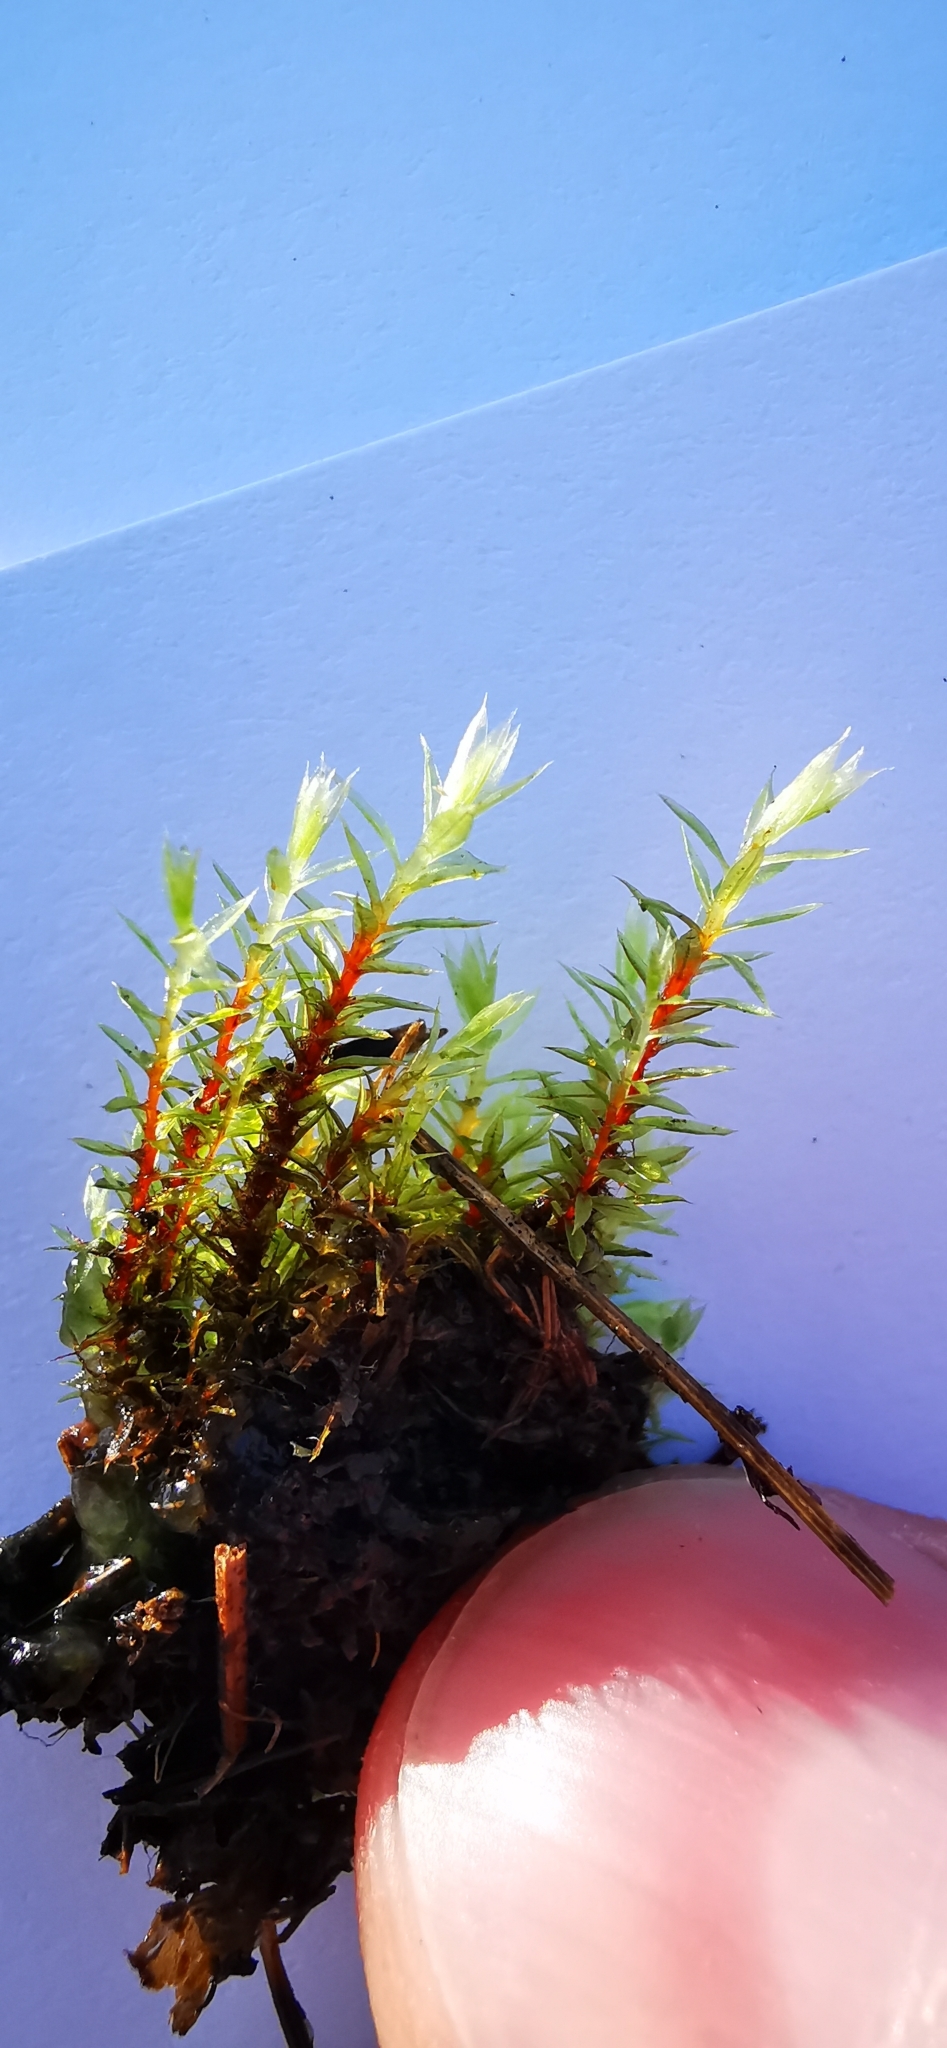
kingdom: Plantae
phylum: Bryophyta
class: Bryopsida
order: Bryales
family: Bryaceae
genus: Ptychostomum
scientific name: Ptychostomum pseudotriquetrum
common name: Long-leaved thread moss
